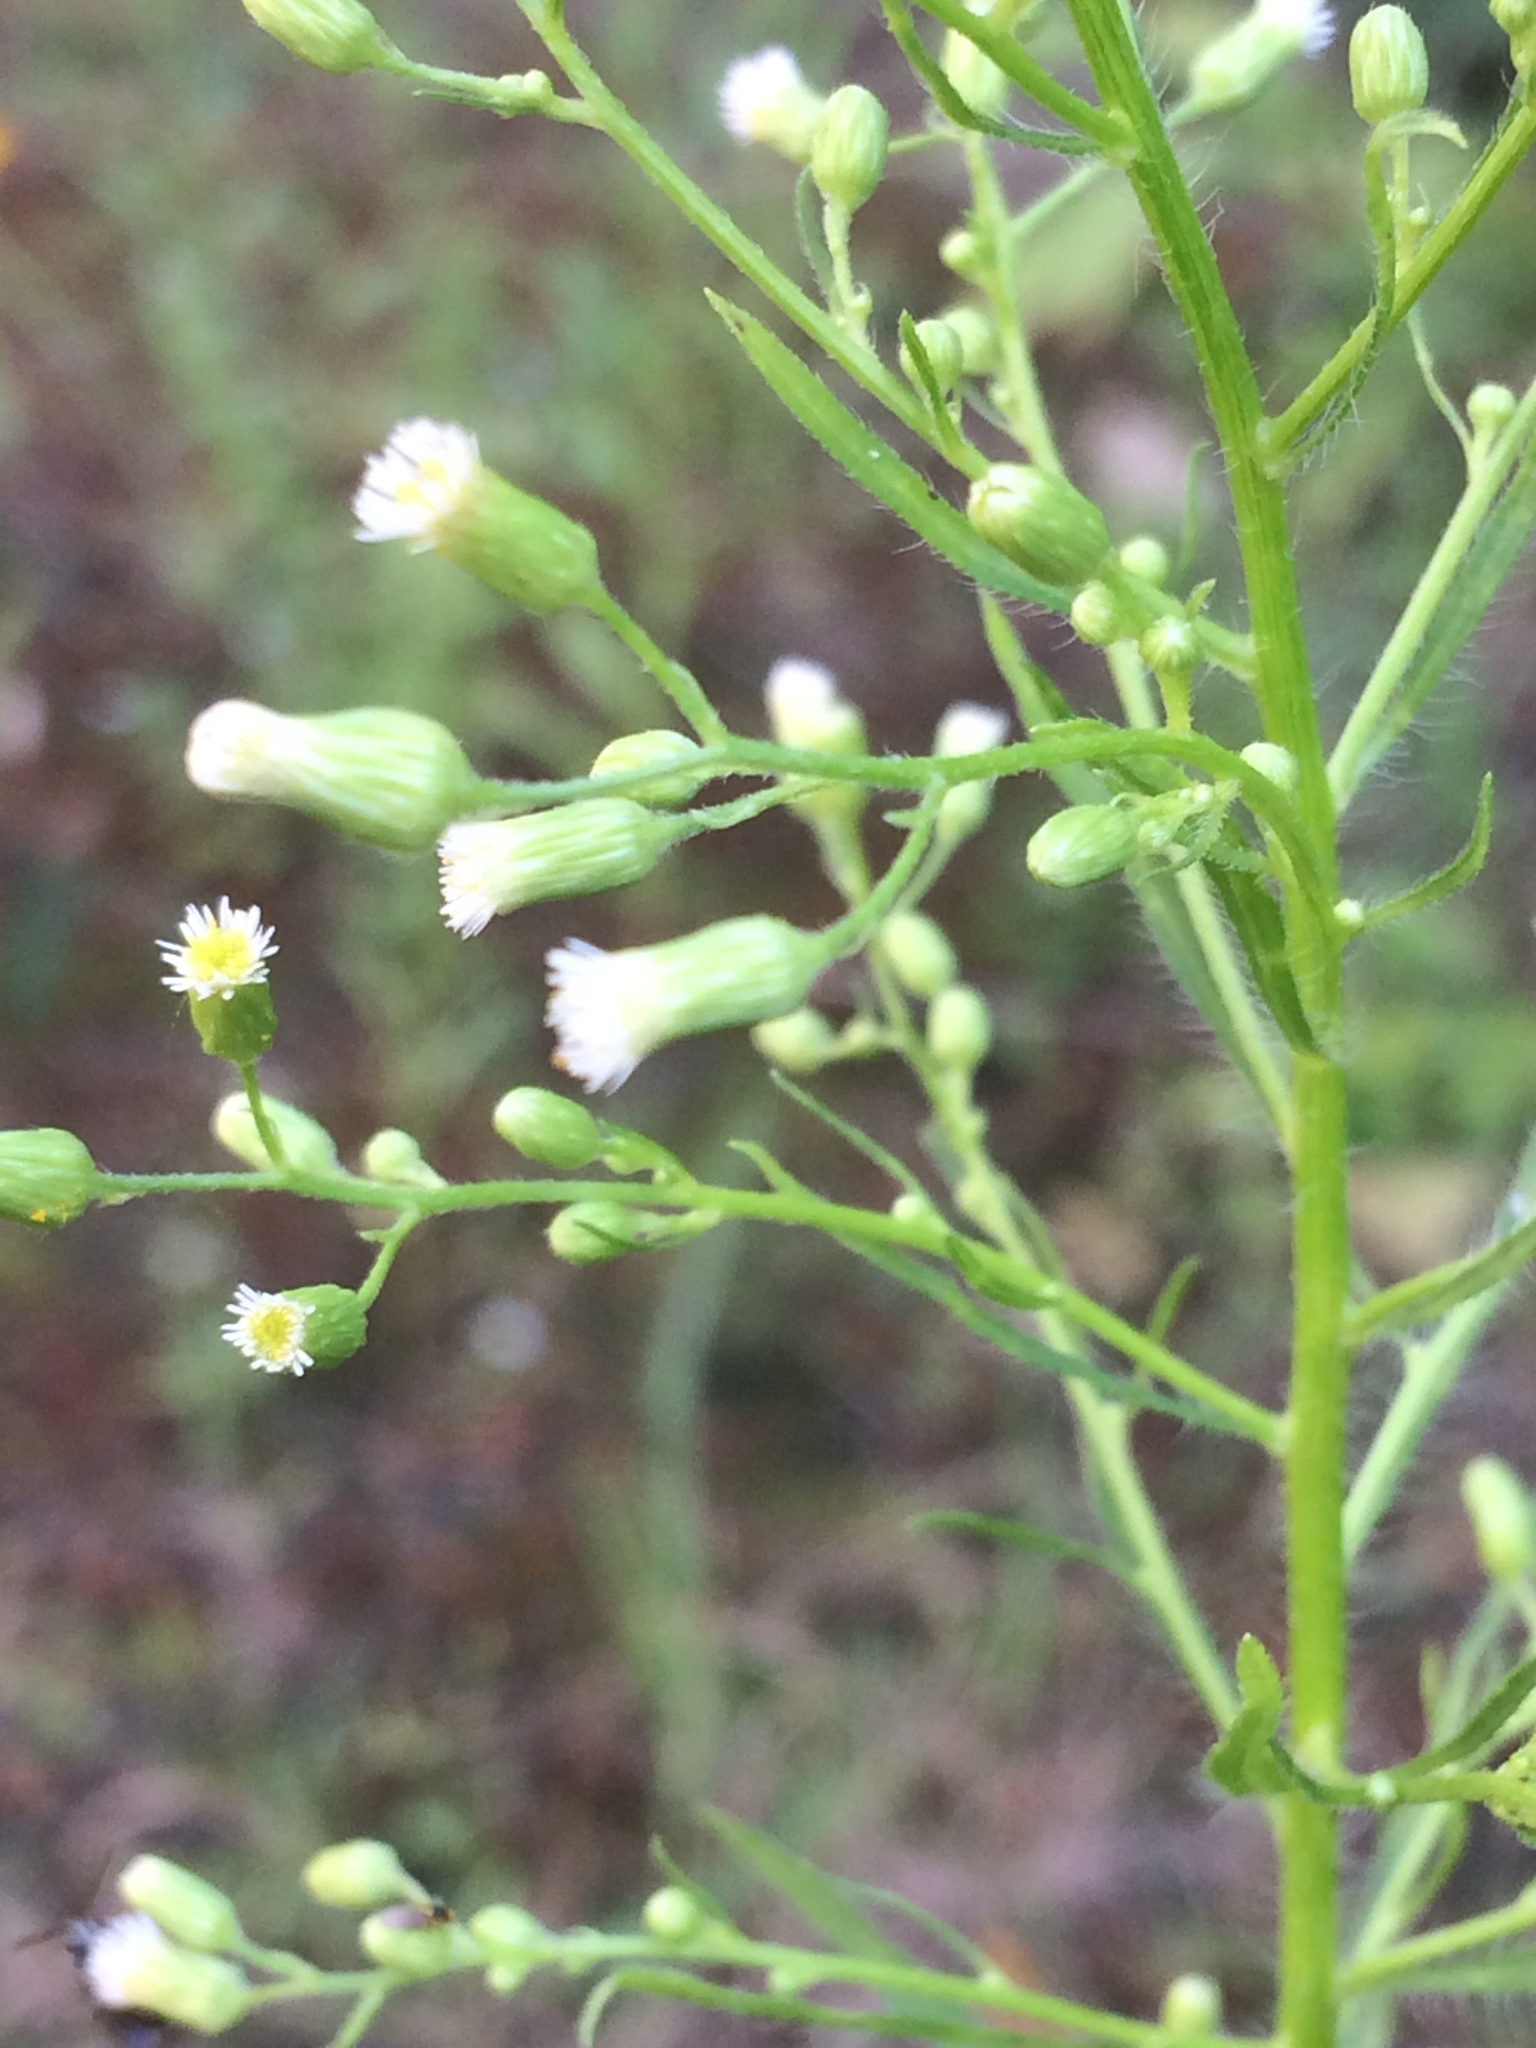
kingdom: Plantae
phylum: Tracheophyta
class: Magnoliopsida
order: Asterales
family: Asteraceae
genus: Erigeron
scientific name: Erigeron canadensis
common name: Canadian fleabane
